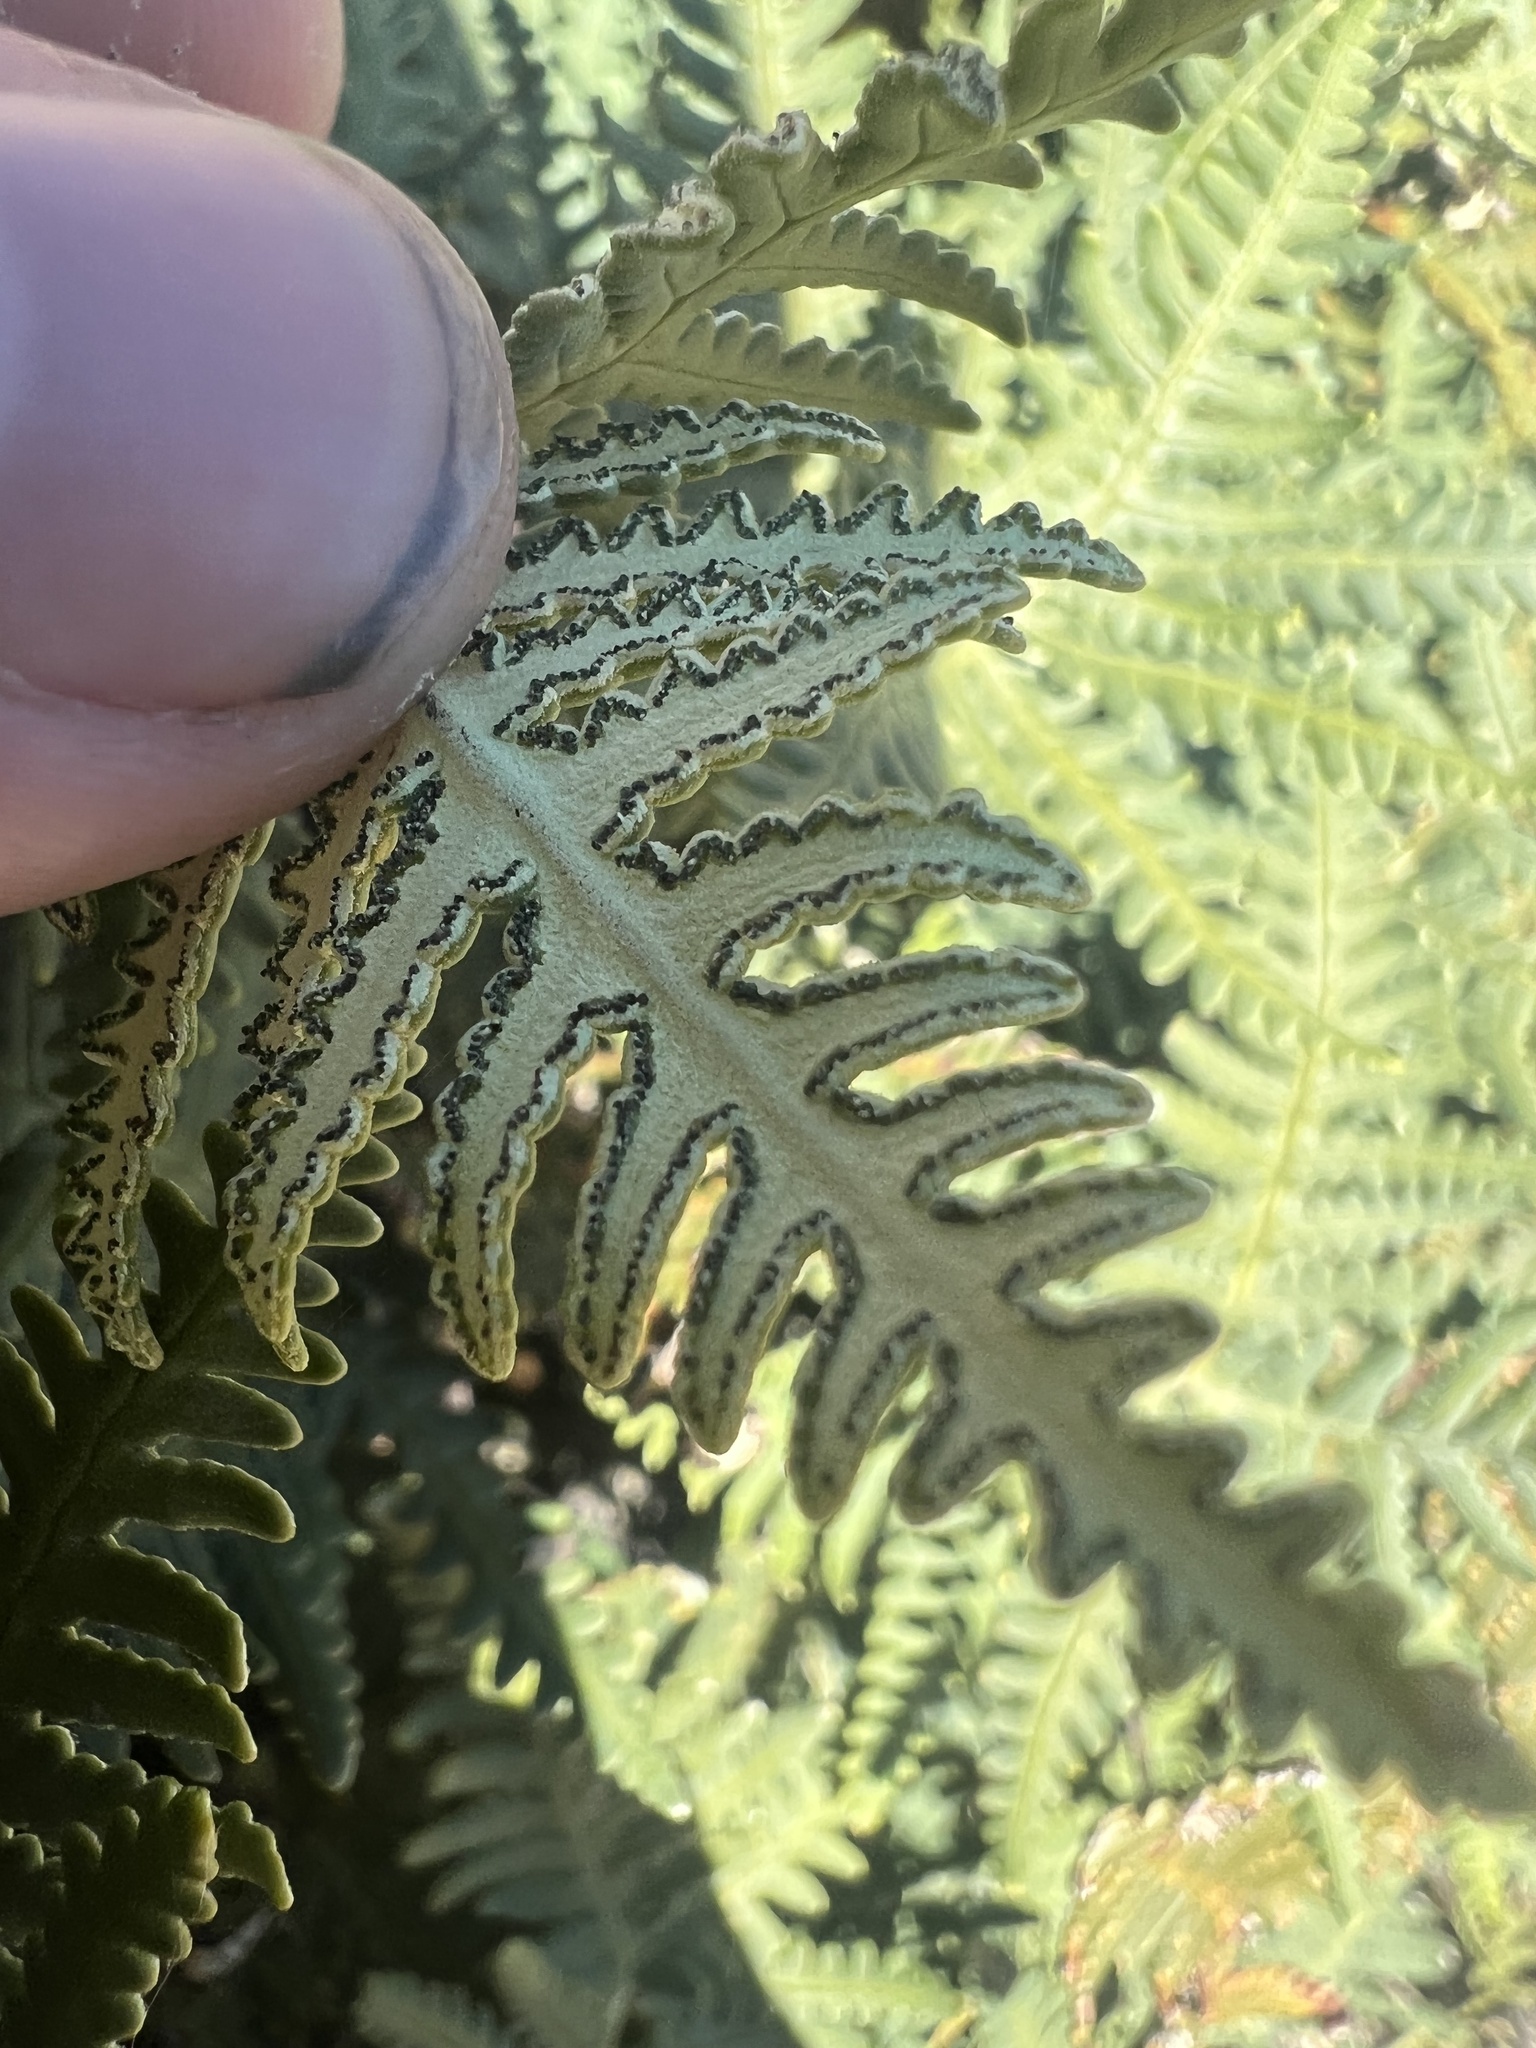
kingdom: Plantae
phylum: Tracheophyta
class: Polypodiopsida
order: Polypodiales
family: Pteridaceae
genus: Notholaena
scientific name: Notholaena standleyi
